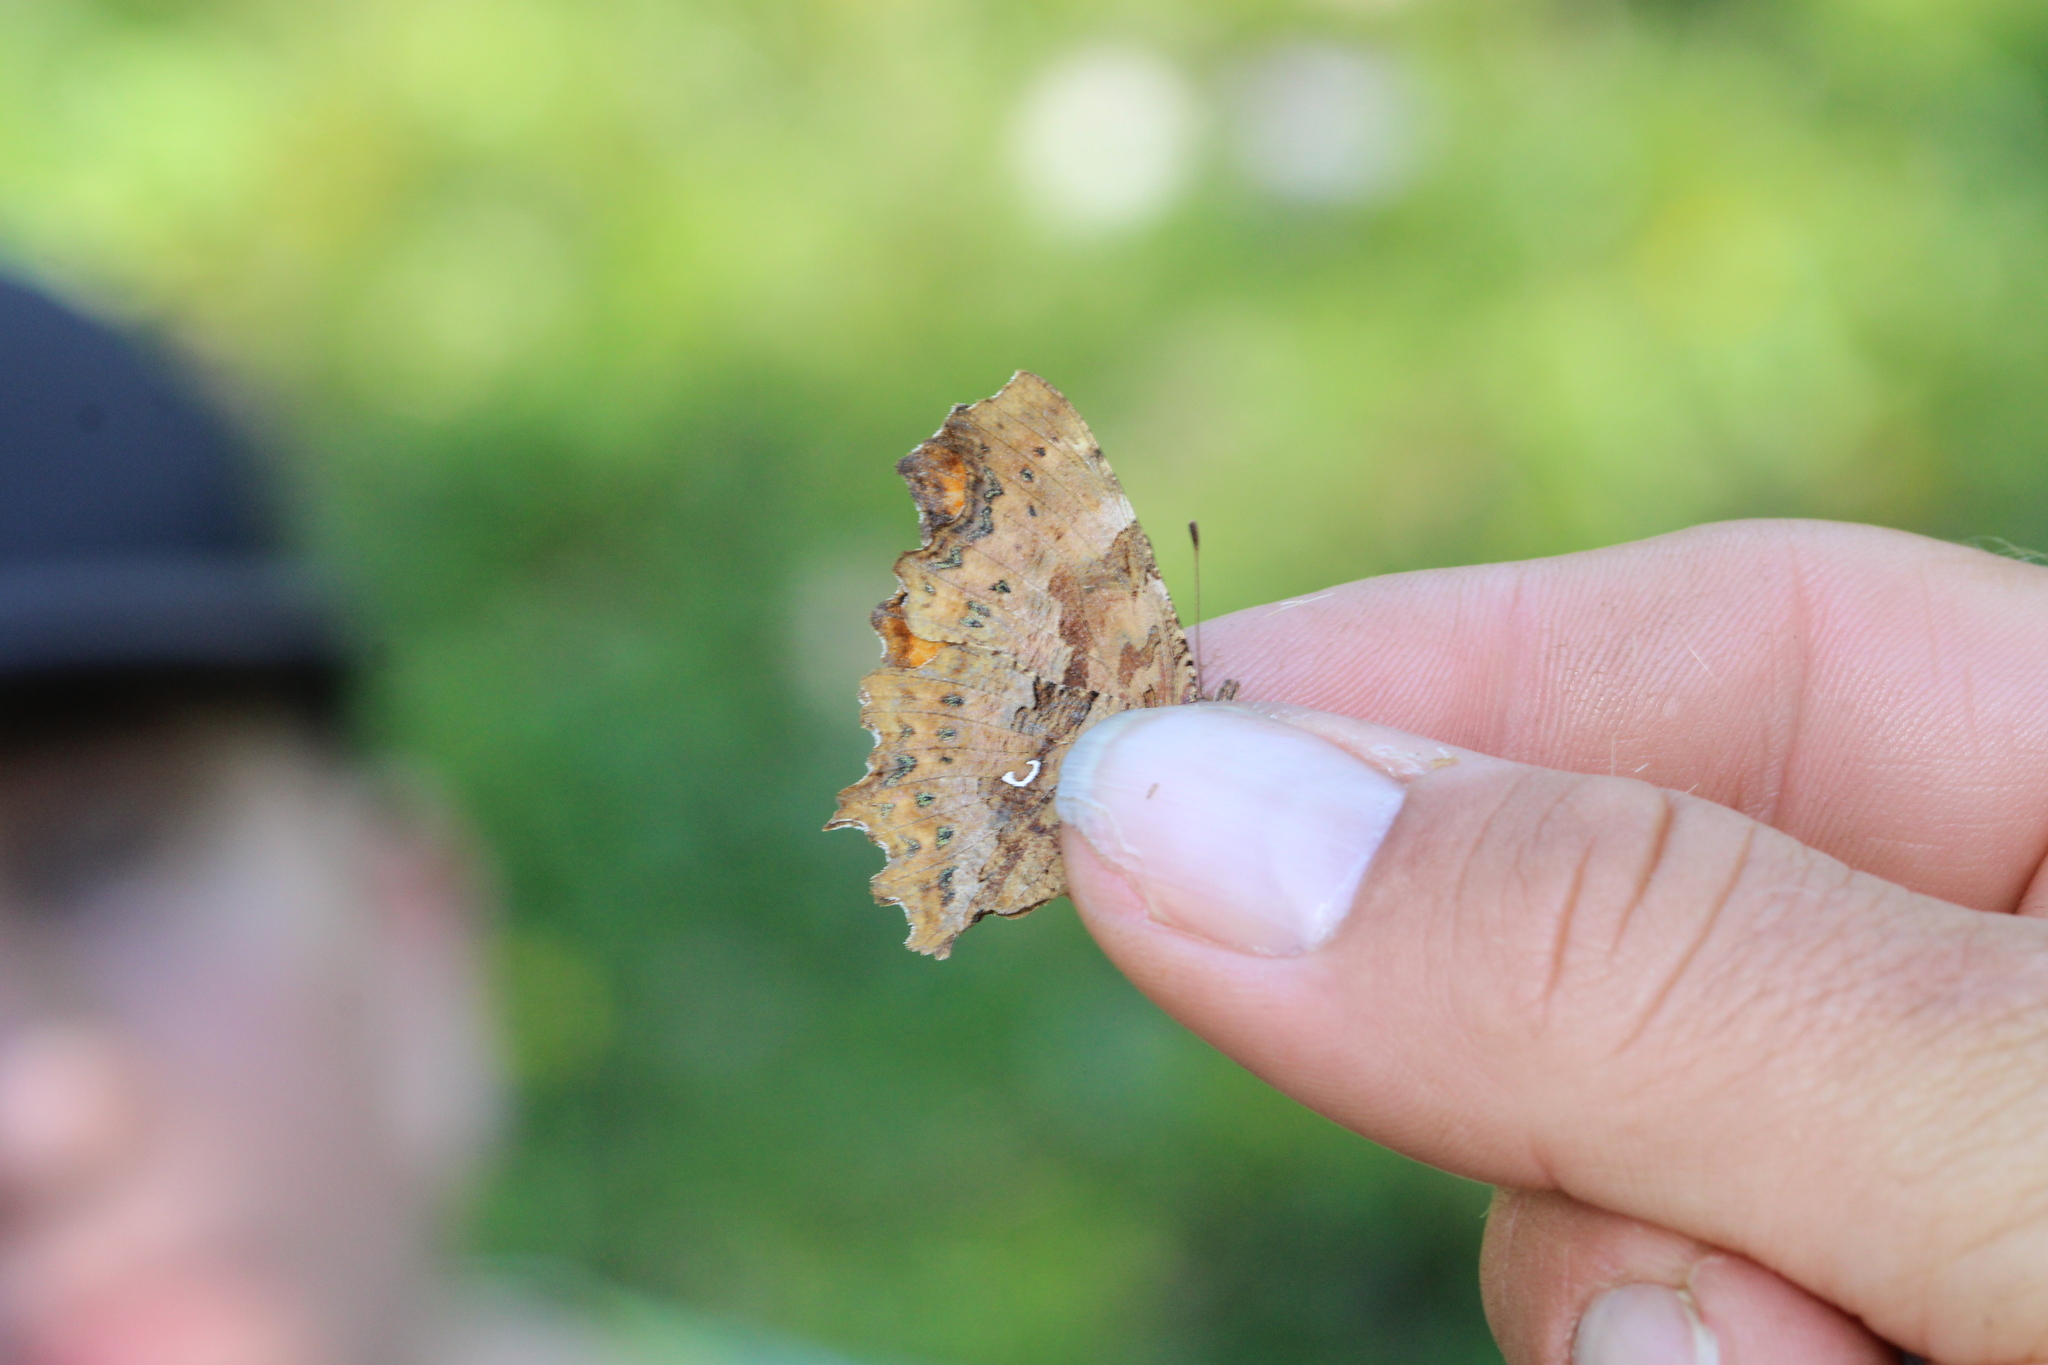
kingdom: Animalia
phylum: Arthropoda
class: Insecta
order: Lepidoptera
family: Nymphalidae
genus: Polygonia
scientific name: Polygonia c-album
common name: Comma
